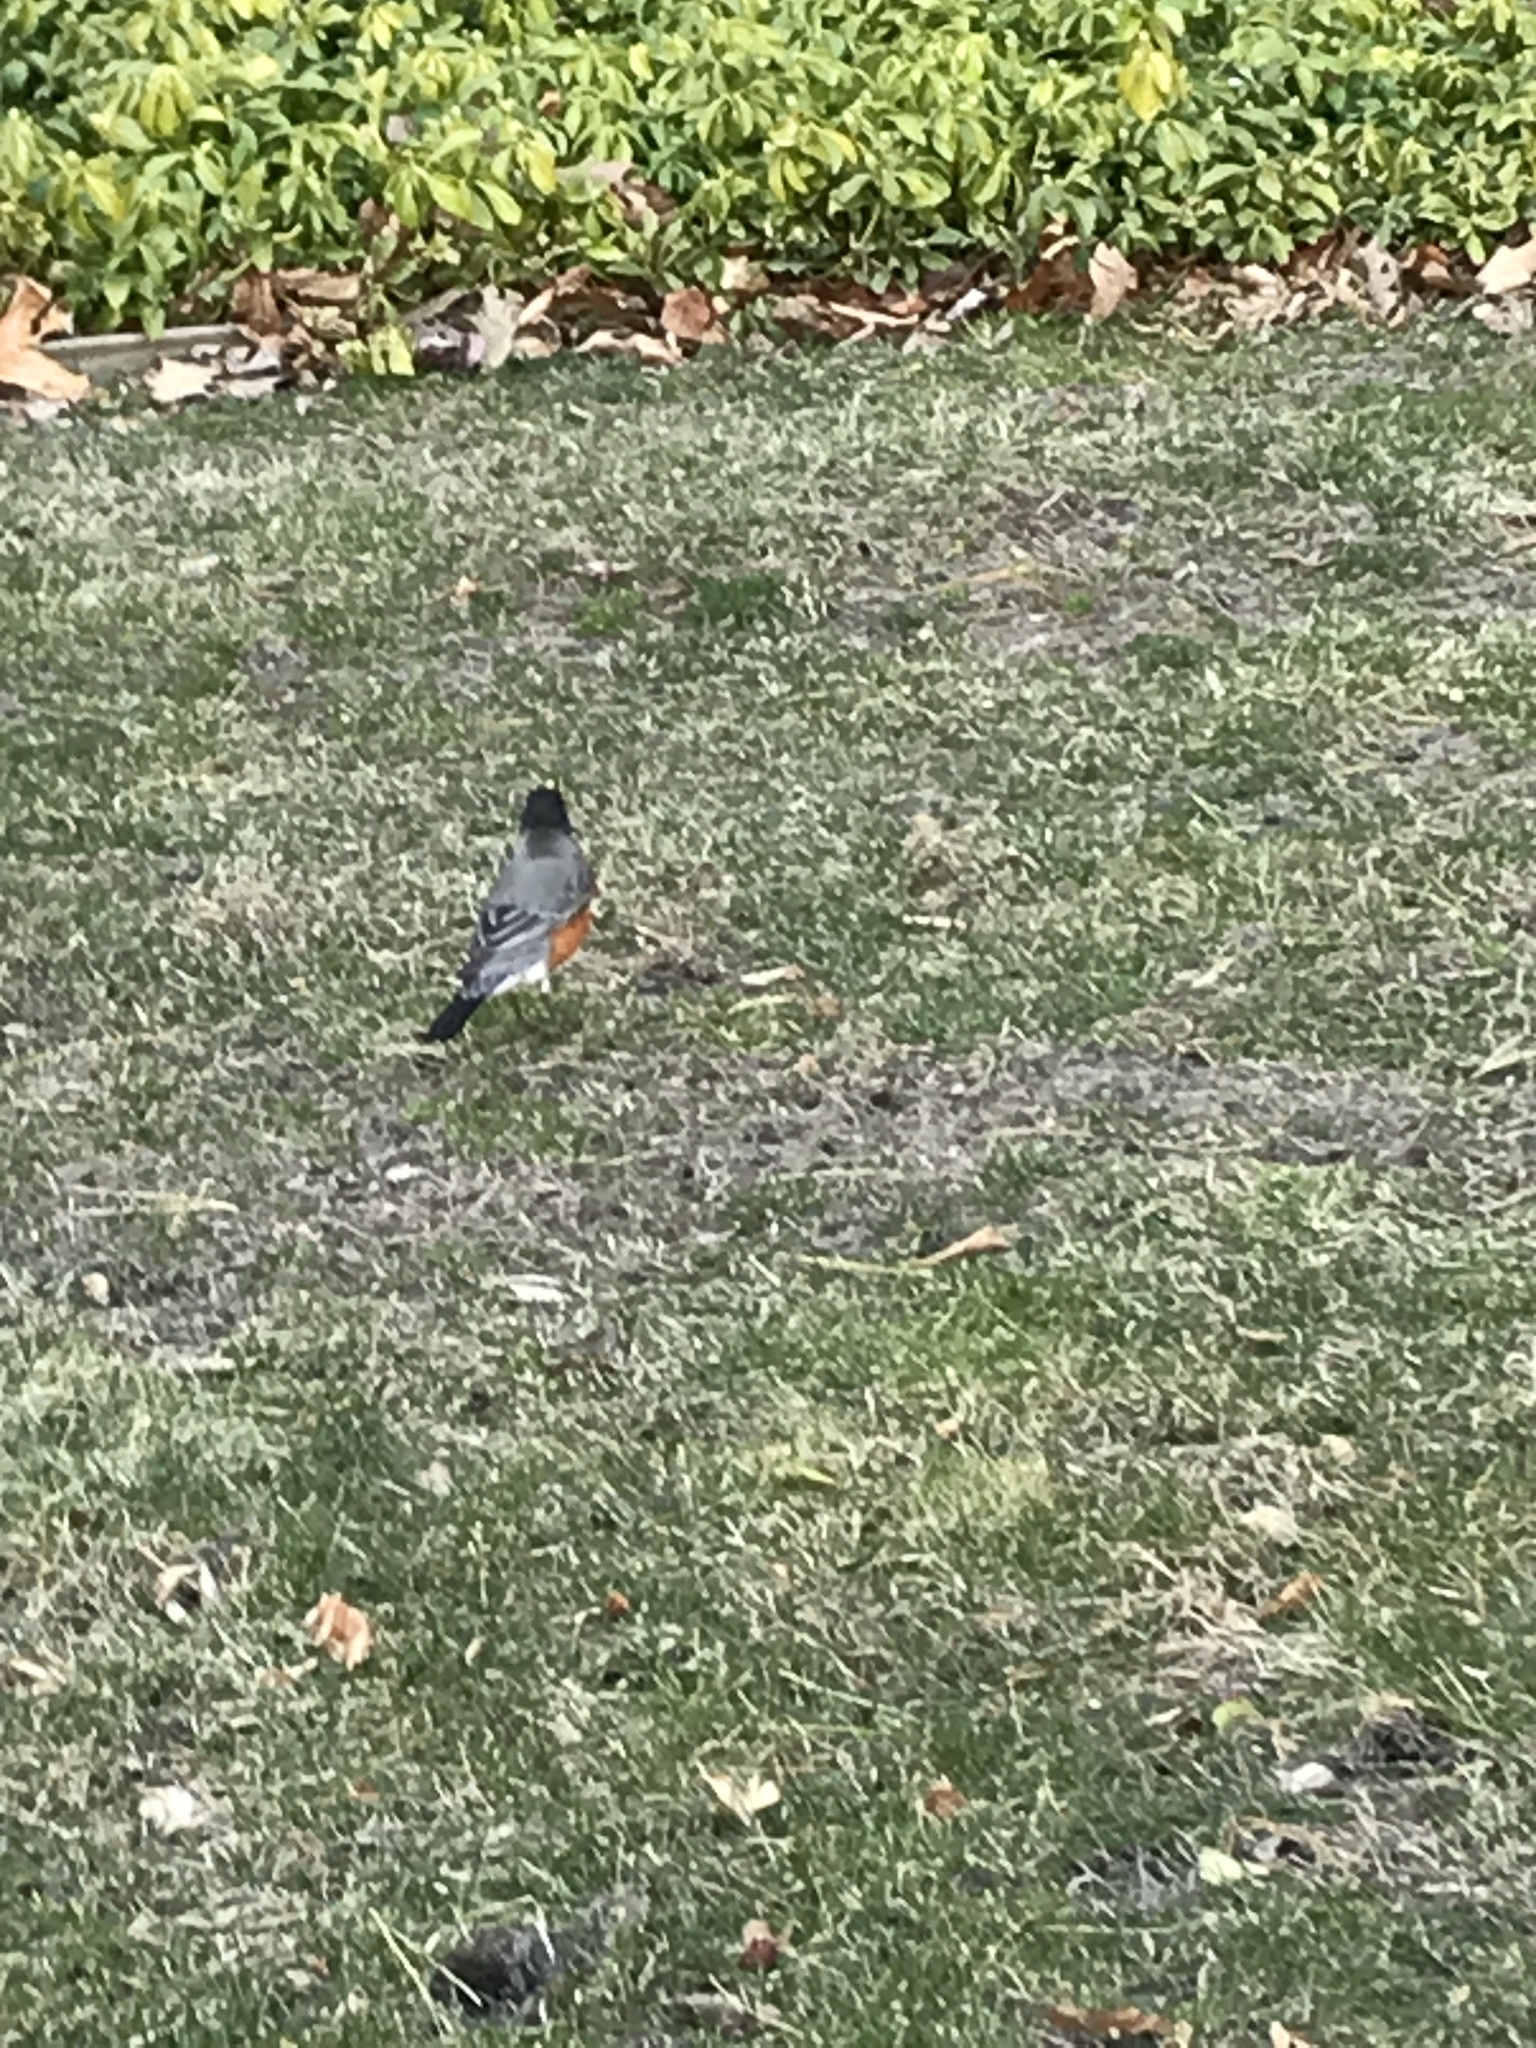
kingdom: Animalia
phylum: Chordata
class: Aves
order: Passeriformes
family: Turdidae
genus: Turdus
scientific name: Turdus migratorius
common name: American robin
